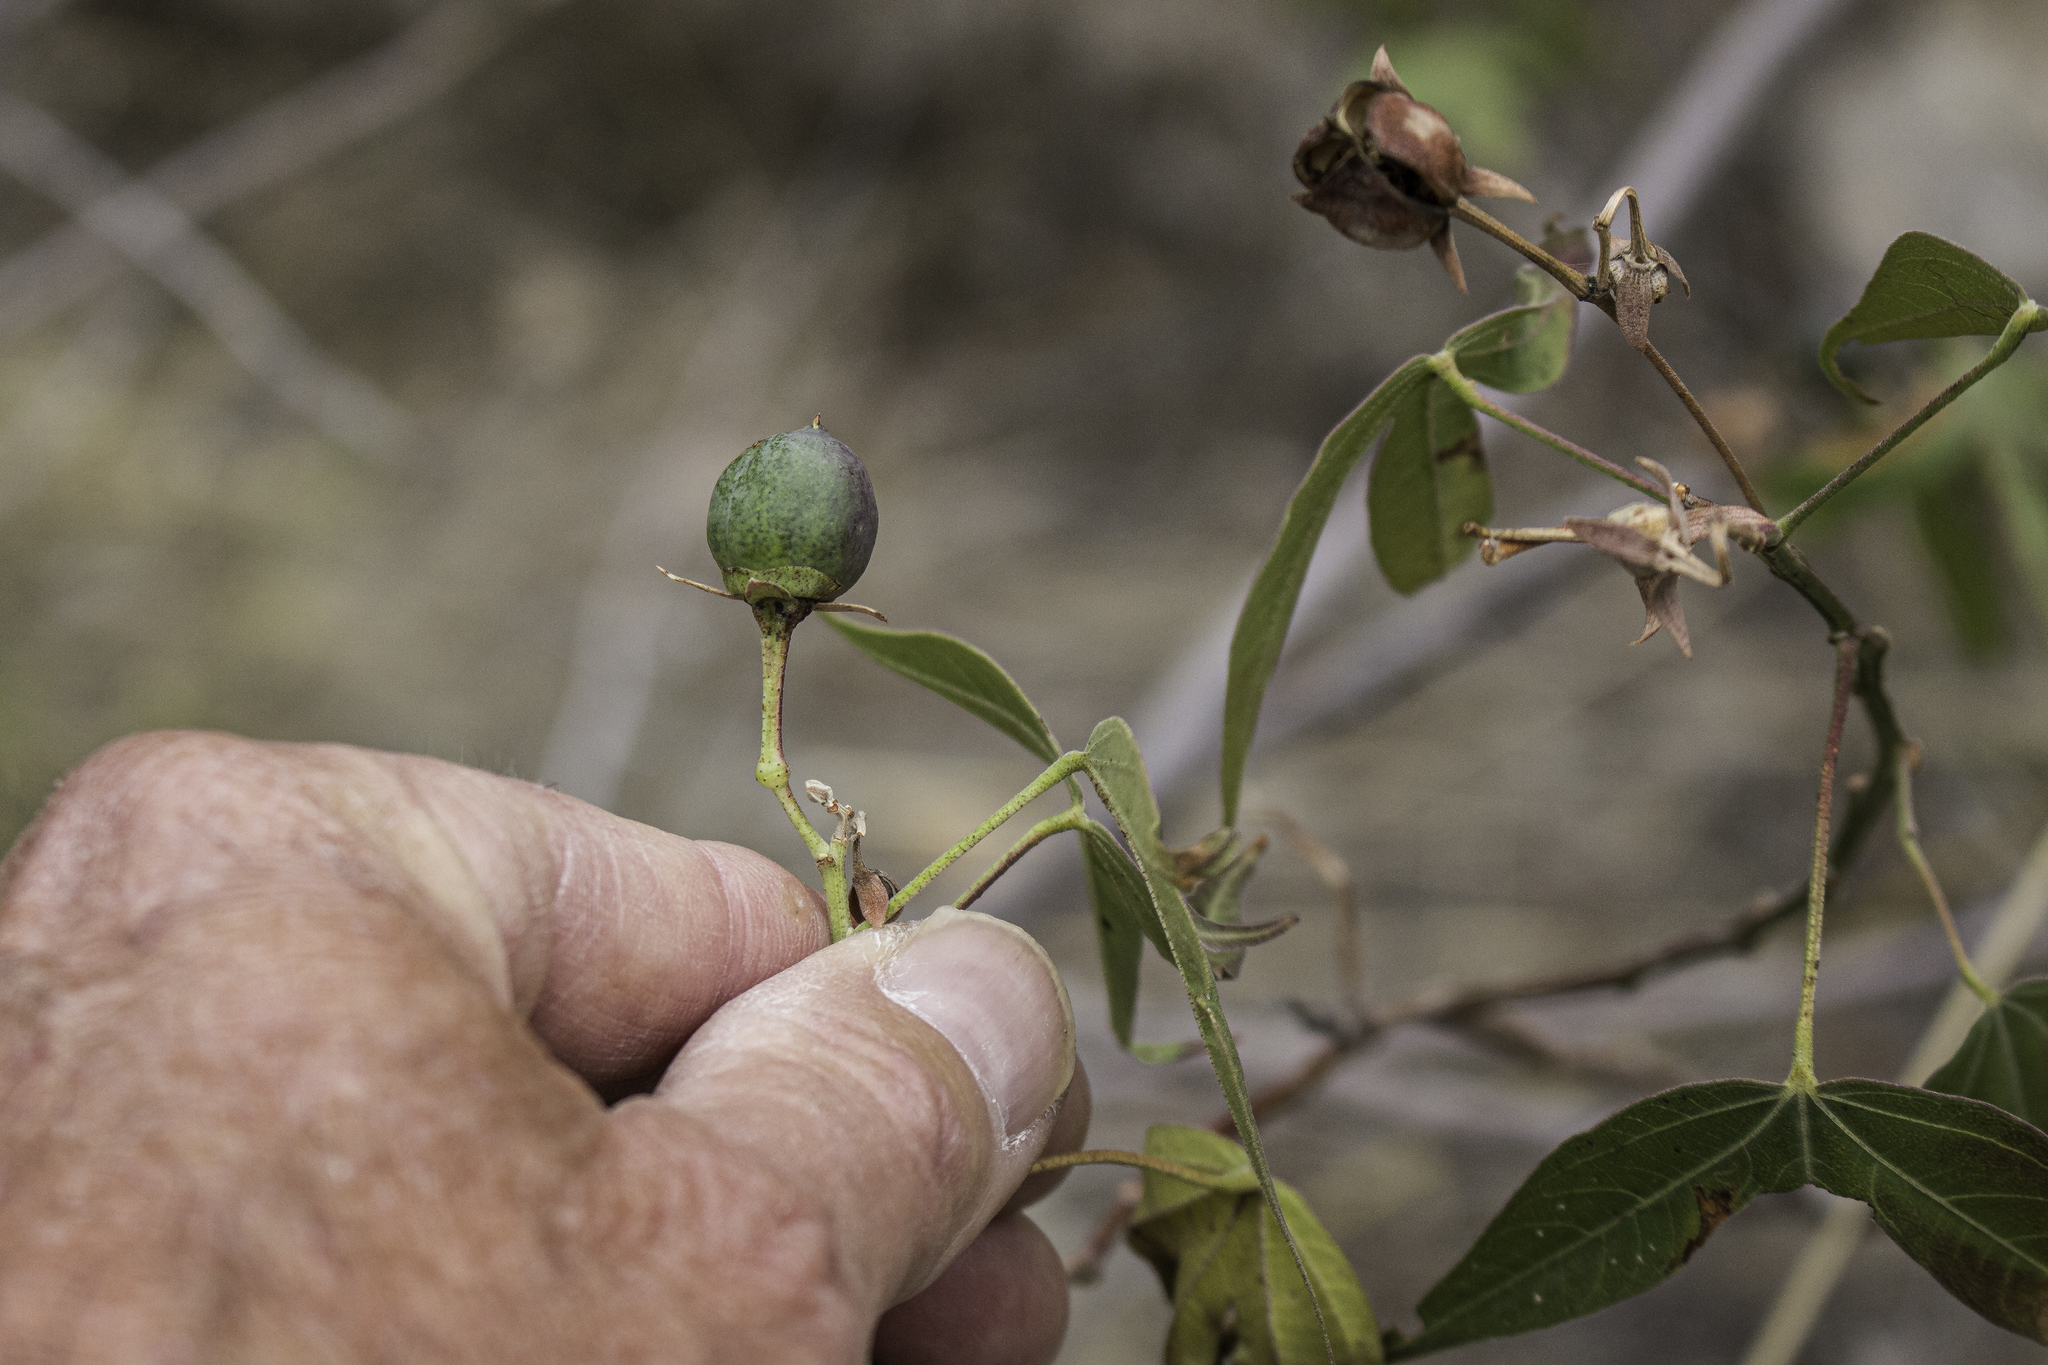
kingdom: Plantae
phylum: Tracheophyta
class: Magnoliopsida
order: Malvales
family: Malvaceae
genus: Gossypium
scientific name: Gossypium thurberi
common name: Desert cotton
